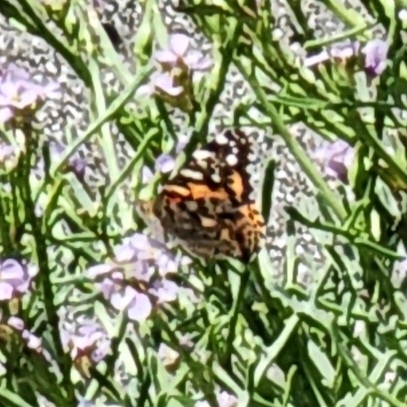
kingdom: Animalia
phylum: Arthropoda
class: Insecta
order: Lepidoptera
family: Nymphalidae
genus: Vanessa
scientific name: Vanessa cardui
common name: Painted lady
